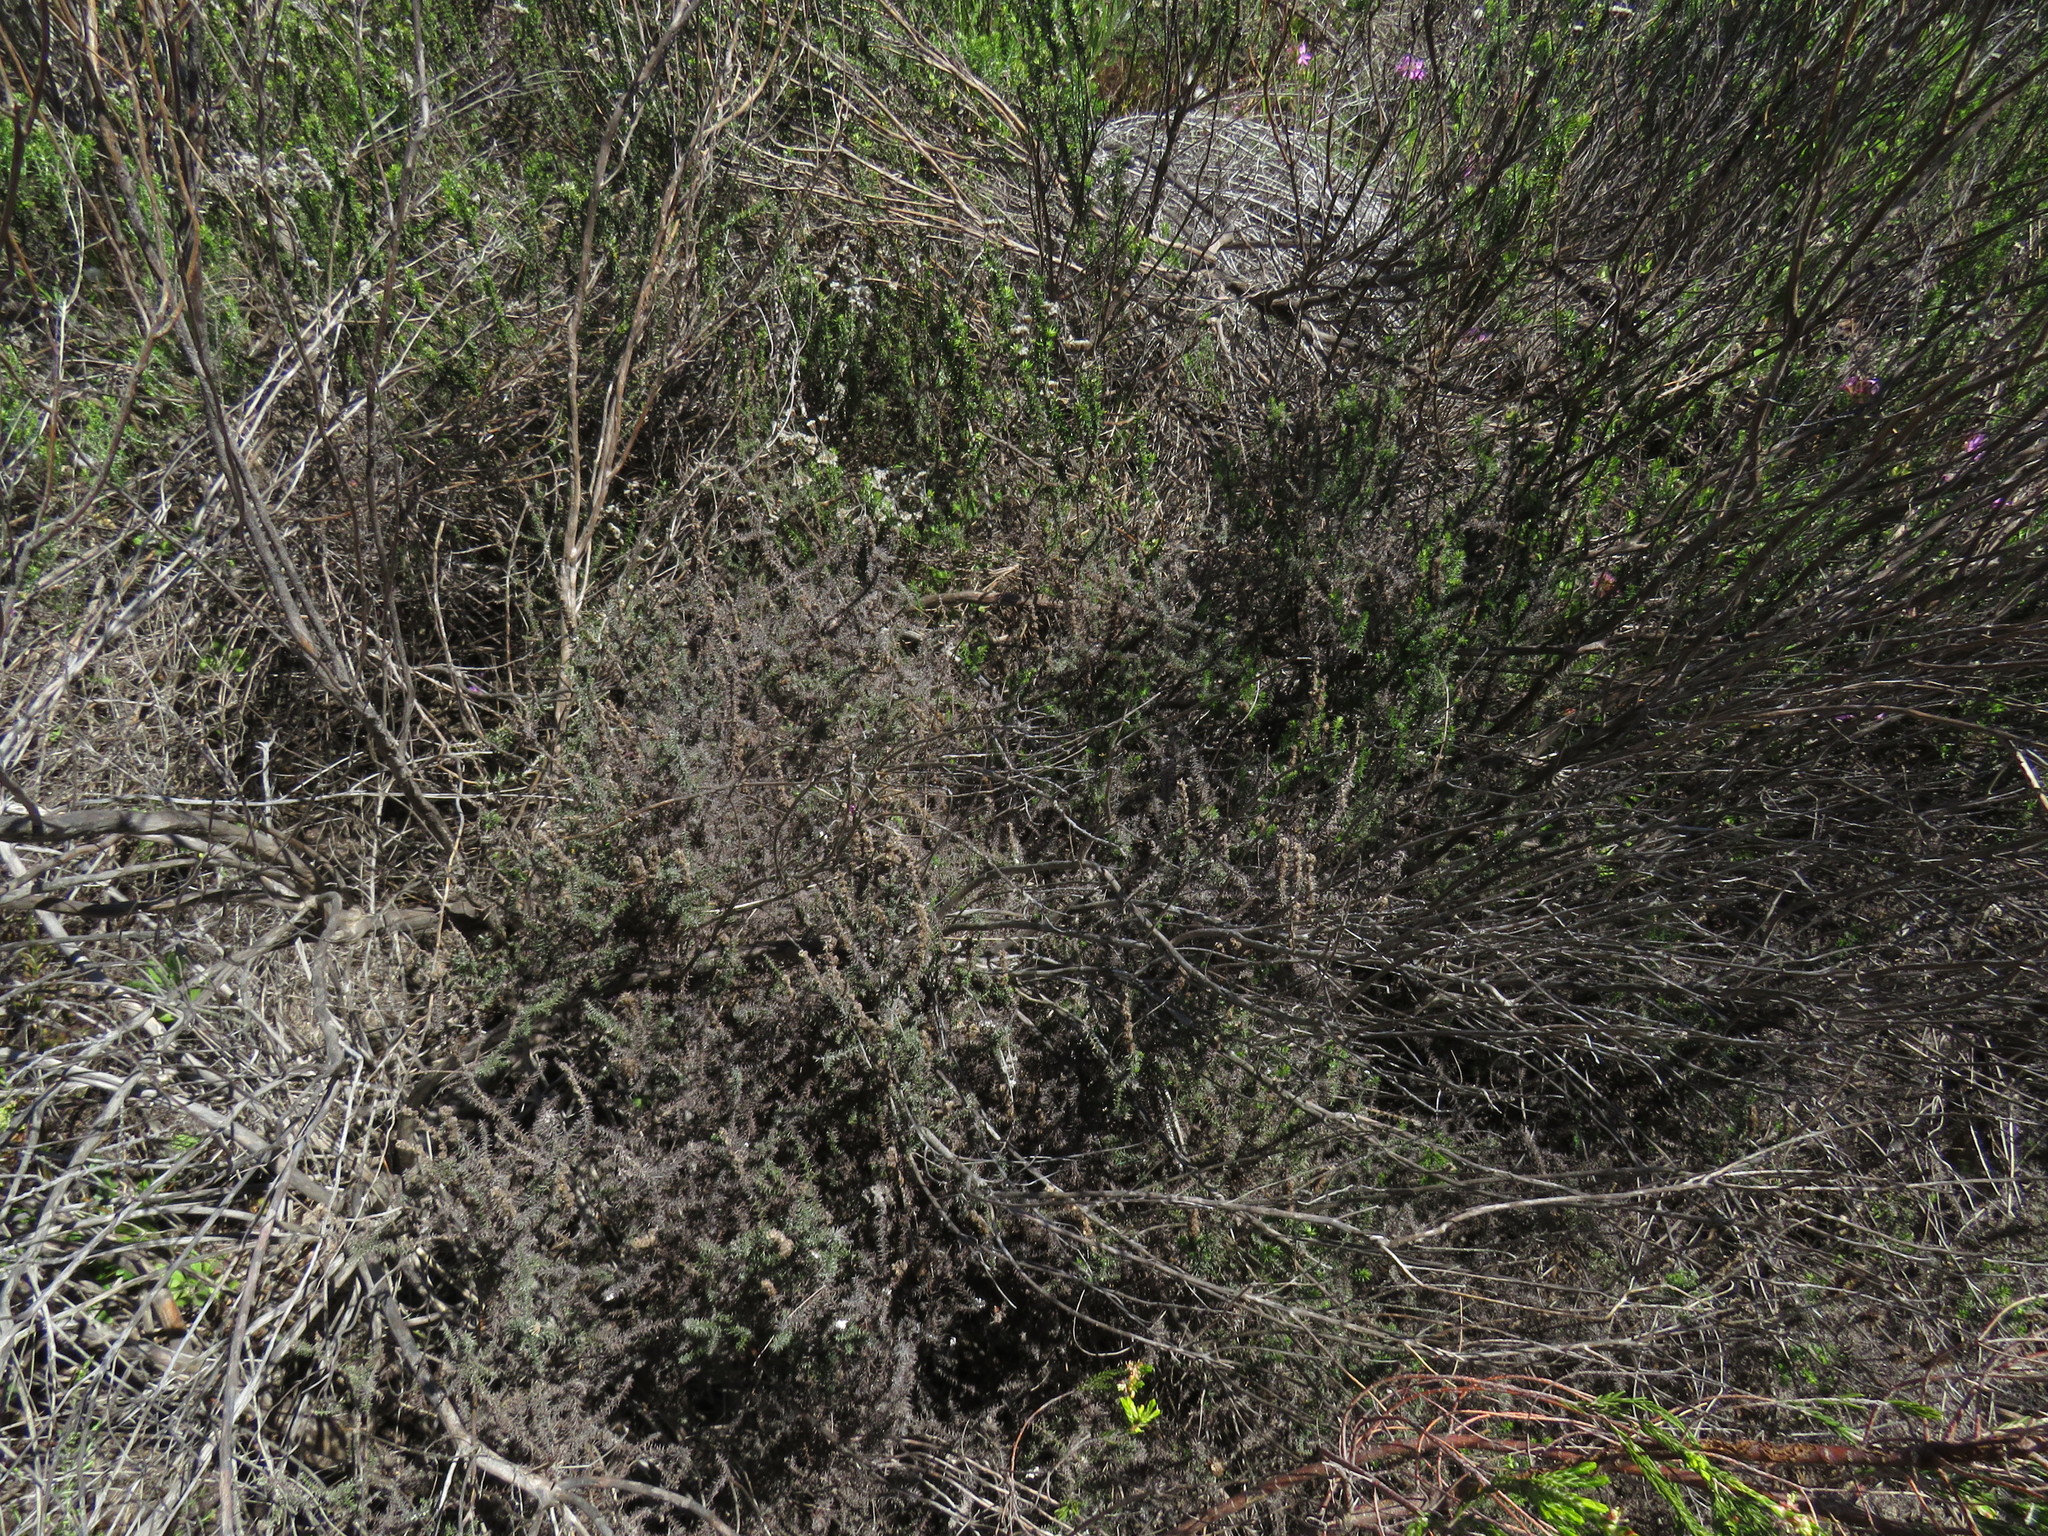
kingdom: Plantae
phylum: Tracheophyta
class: Magnoliopsida
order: Asterales
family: Asteraceae
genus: Seriphium
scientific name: Seriphium cinereum
